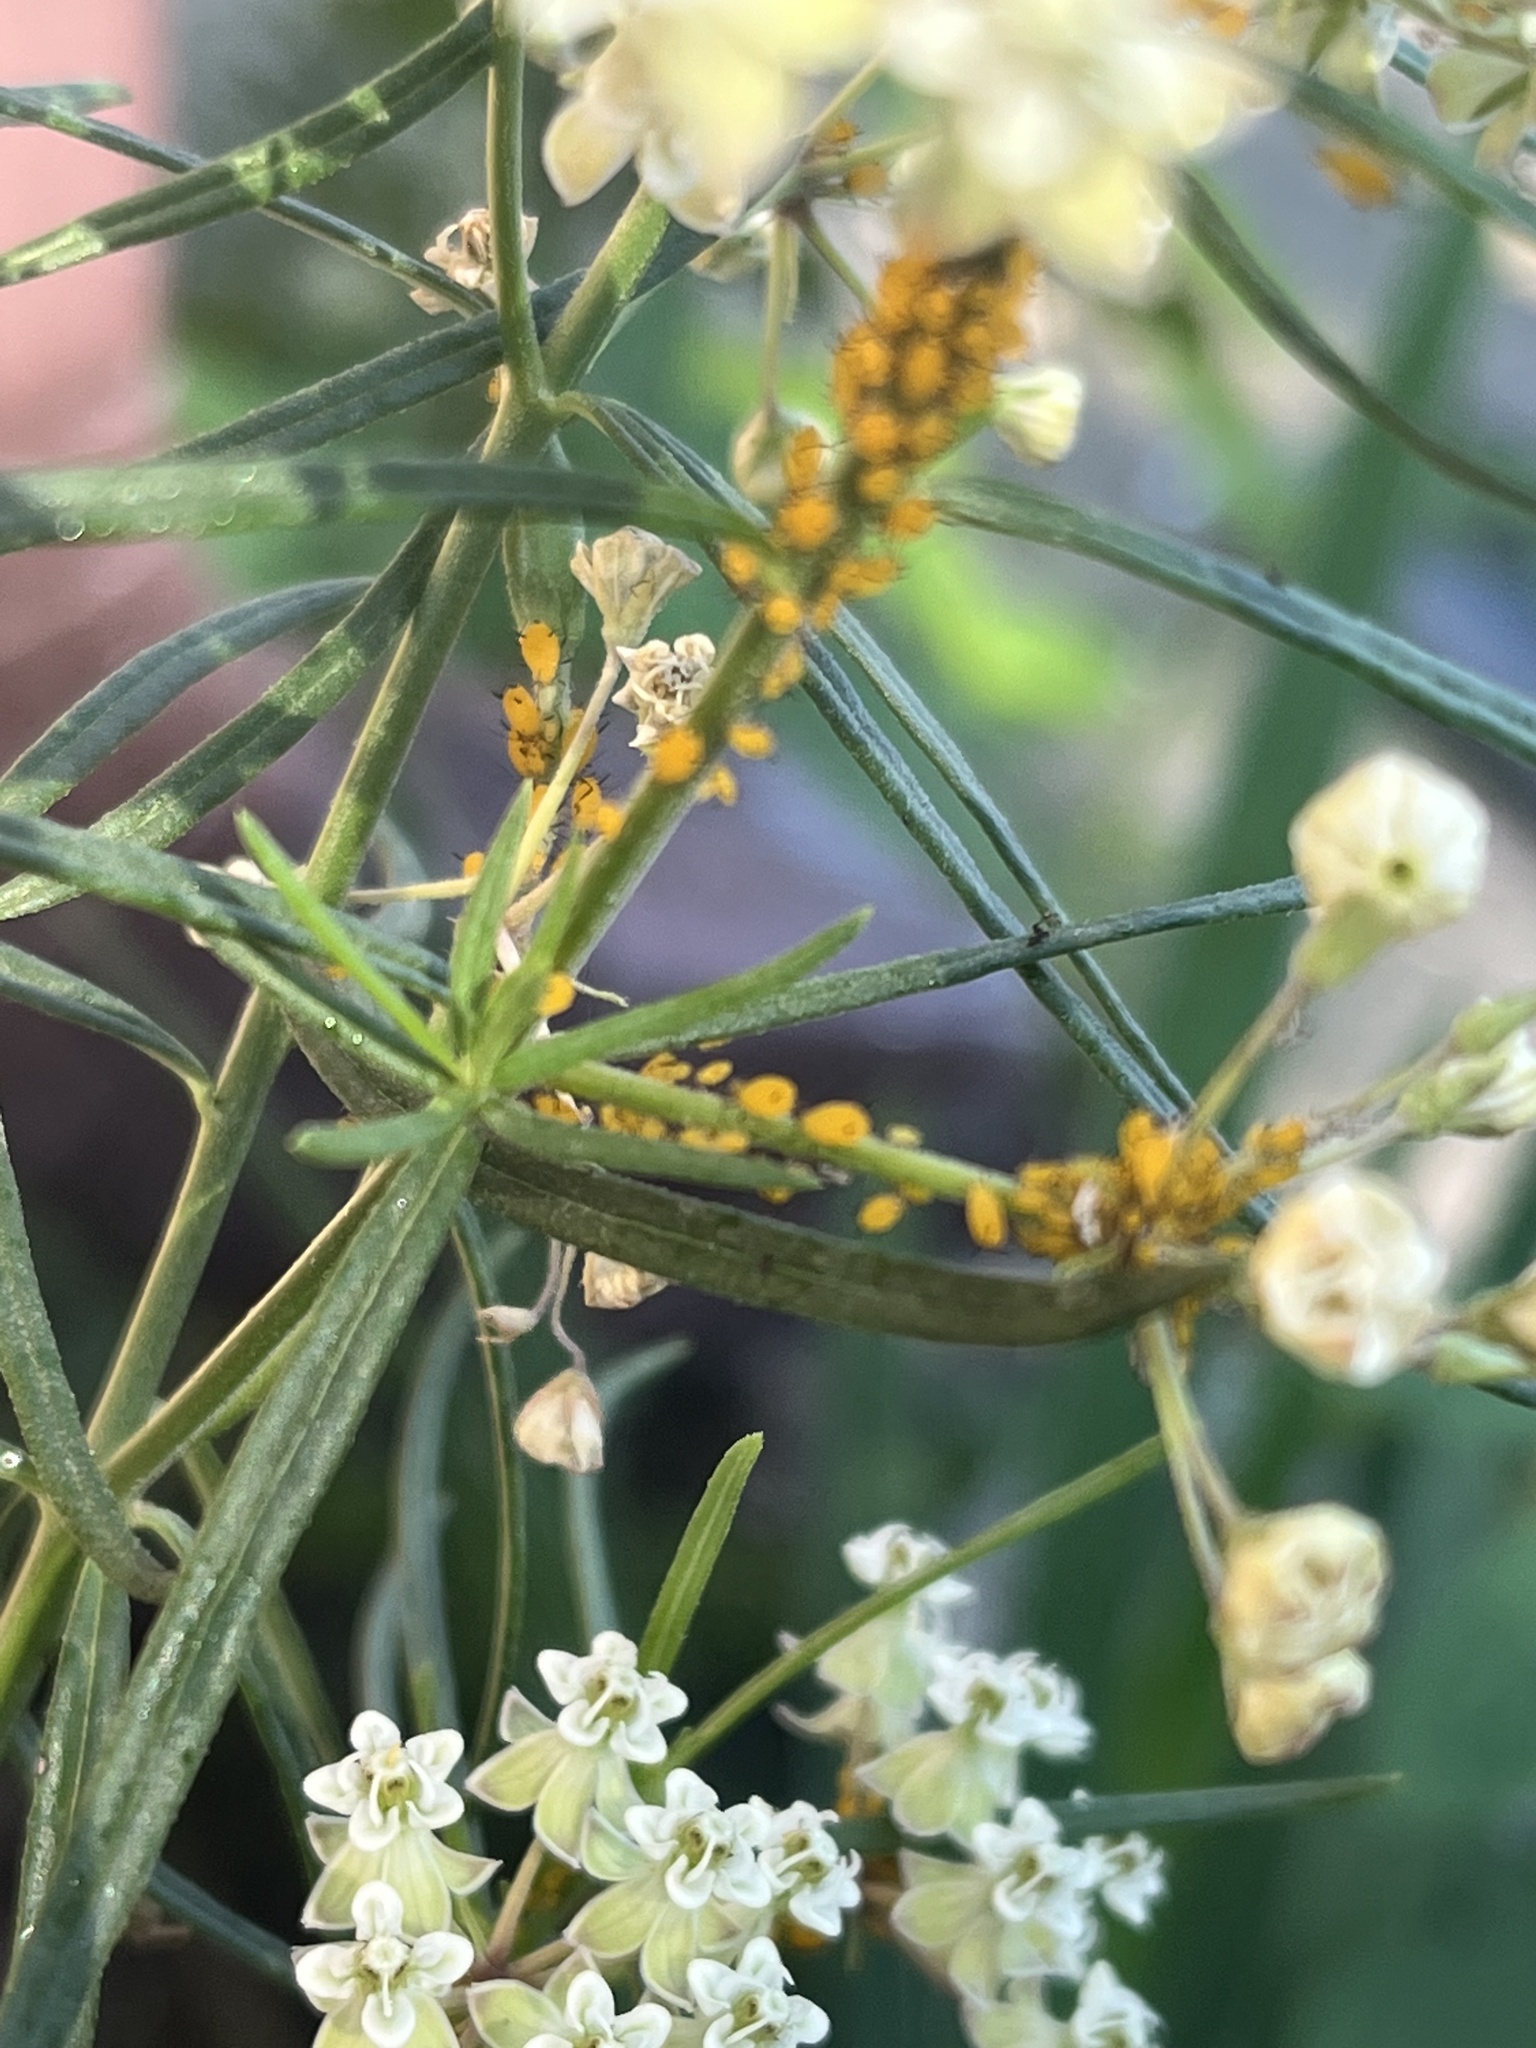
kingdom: Animalia
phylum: Arthropoda
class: Insecta
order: Hemiptera
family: Aphididae
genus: Aphis
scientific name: Aphis nerii
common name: Oleander aphid
